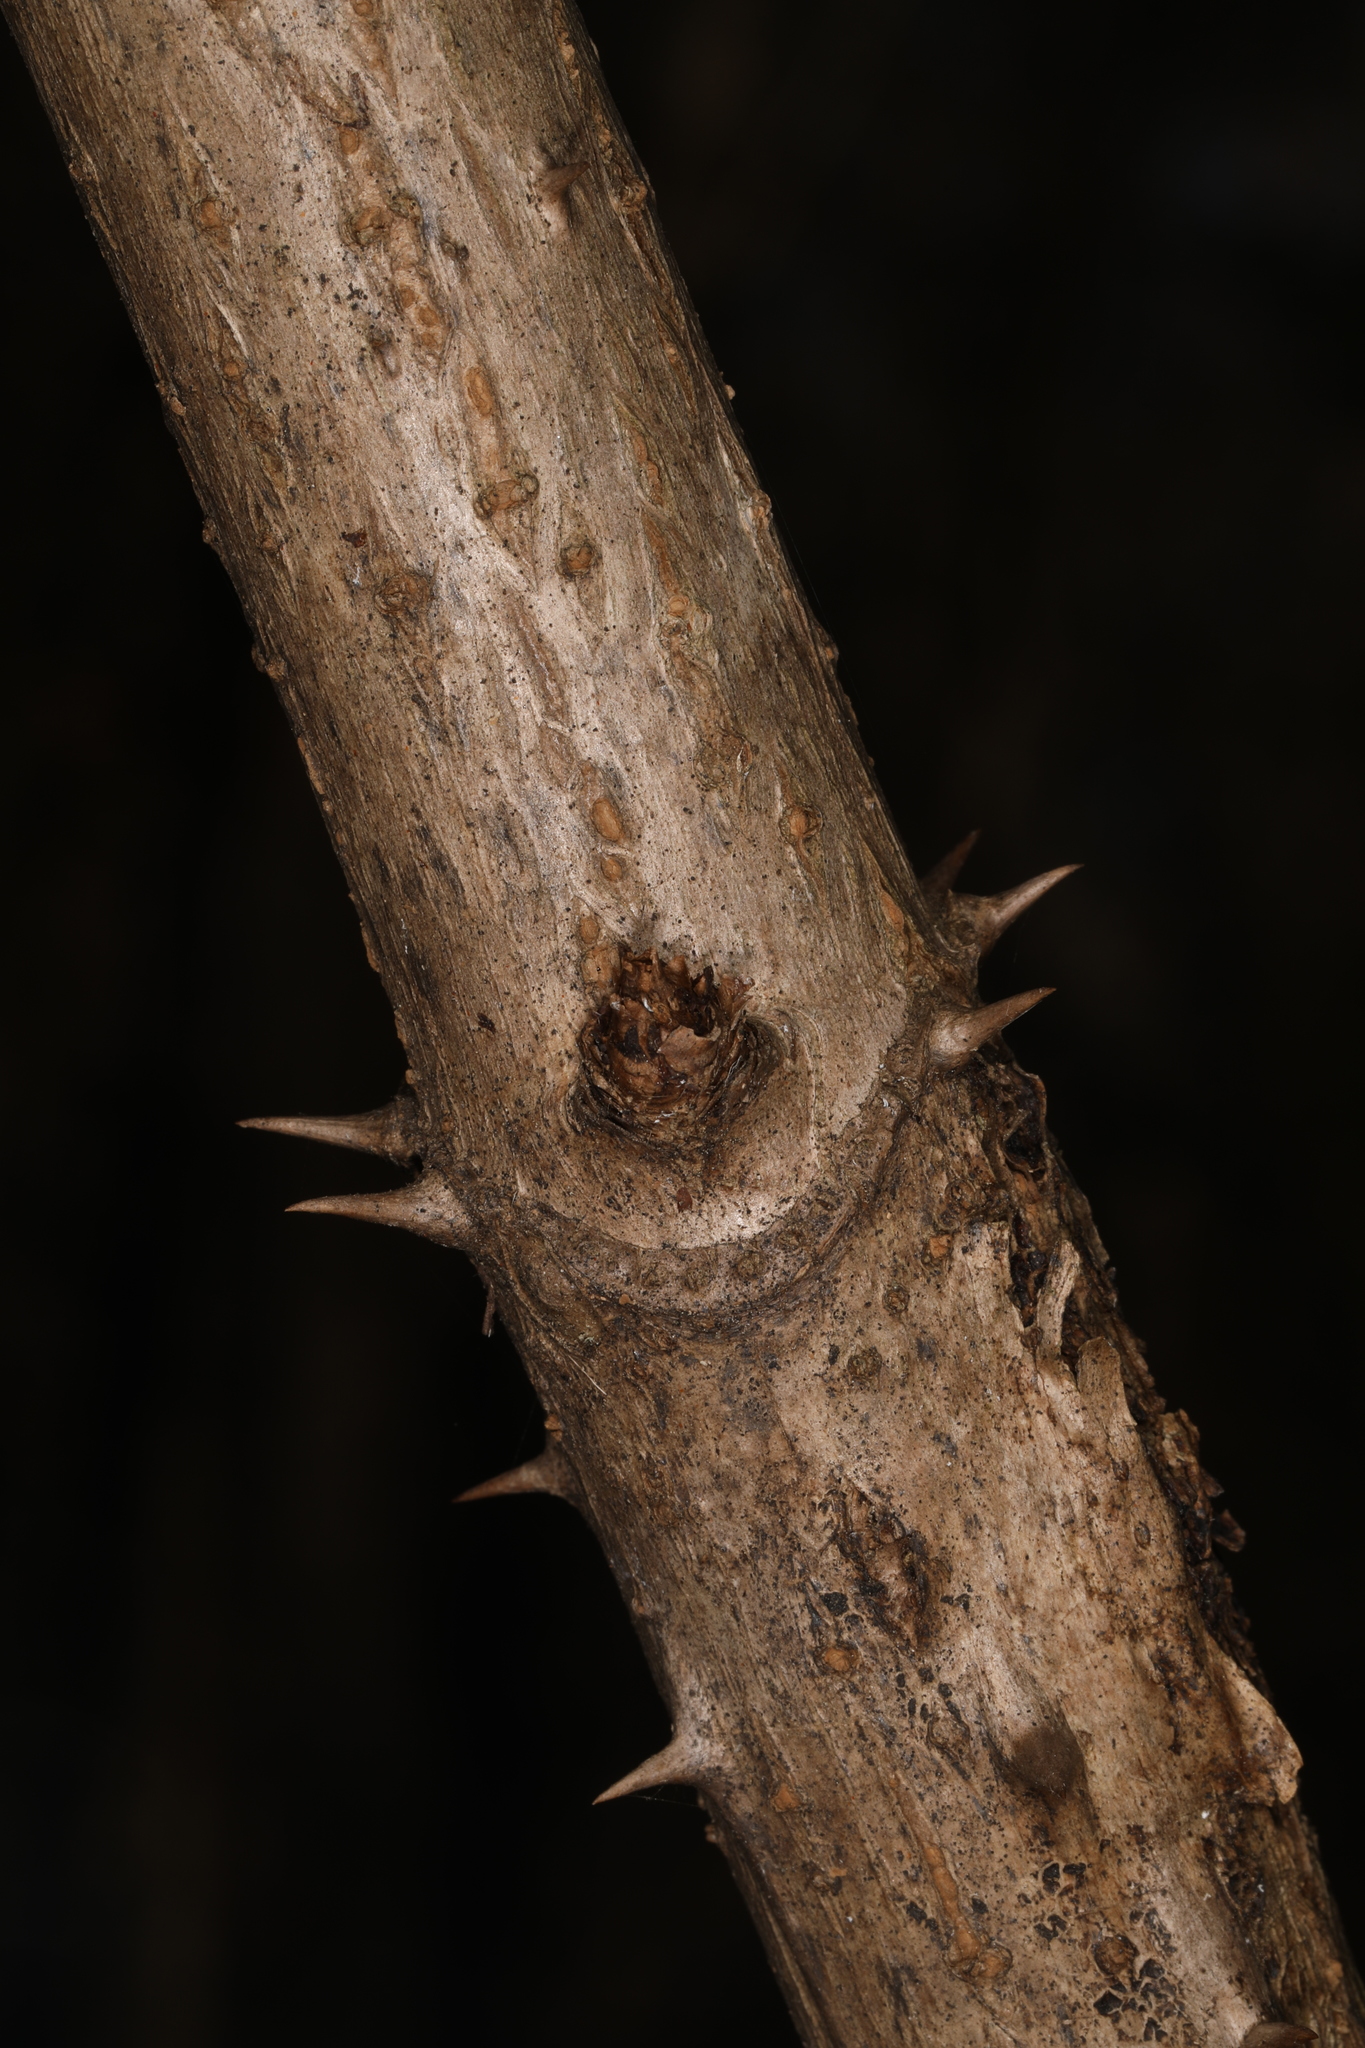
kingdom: Plantae
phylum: Tracheophyta
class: Magnoliopsida
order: Apiales
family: Araliaceae
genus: Aralia
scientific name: Aralia spinosa
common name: Hercules'-club
